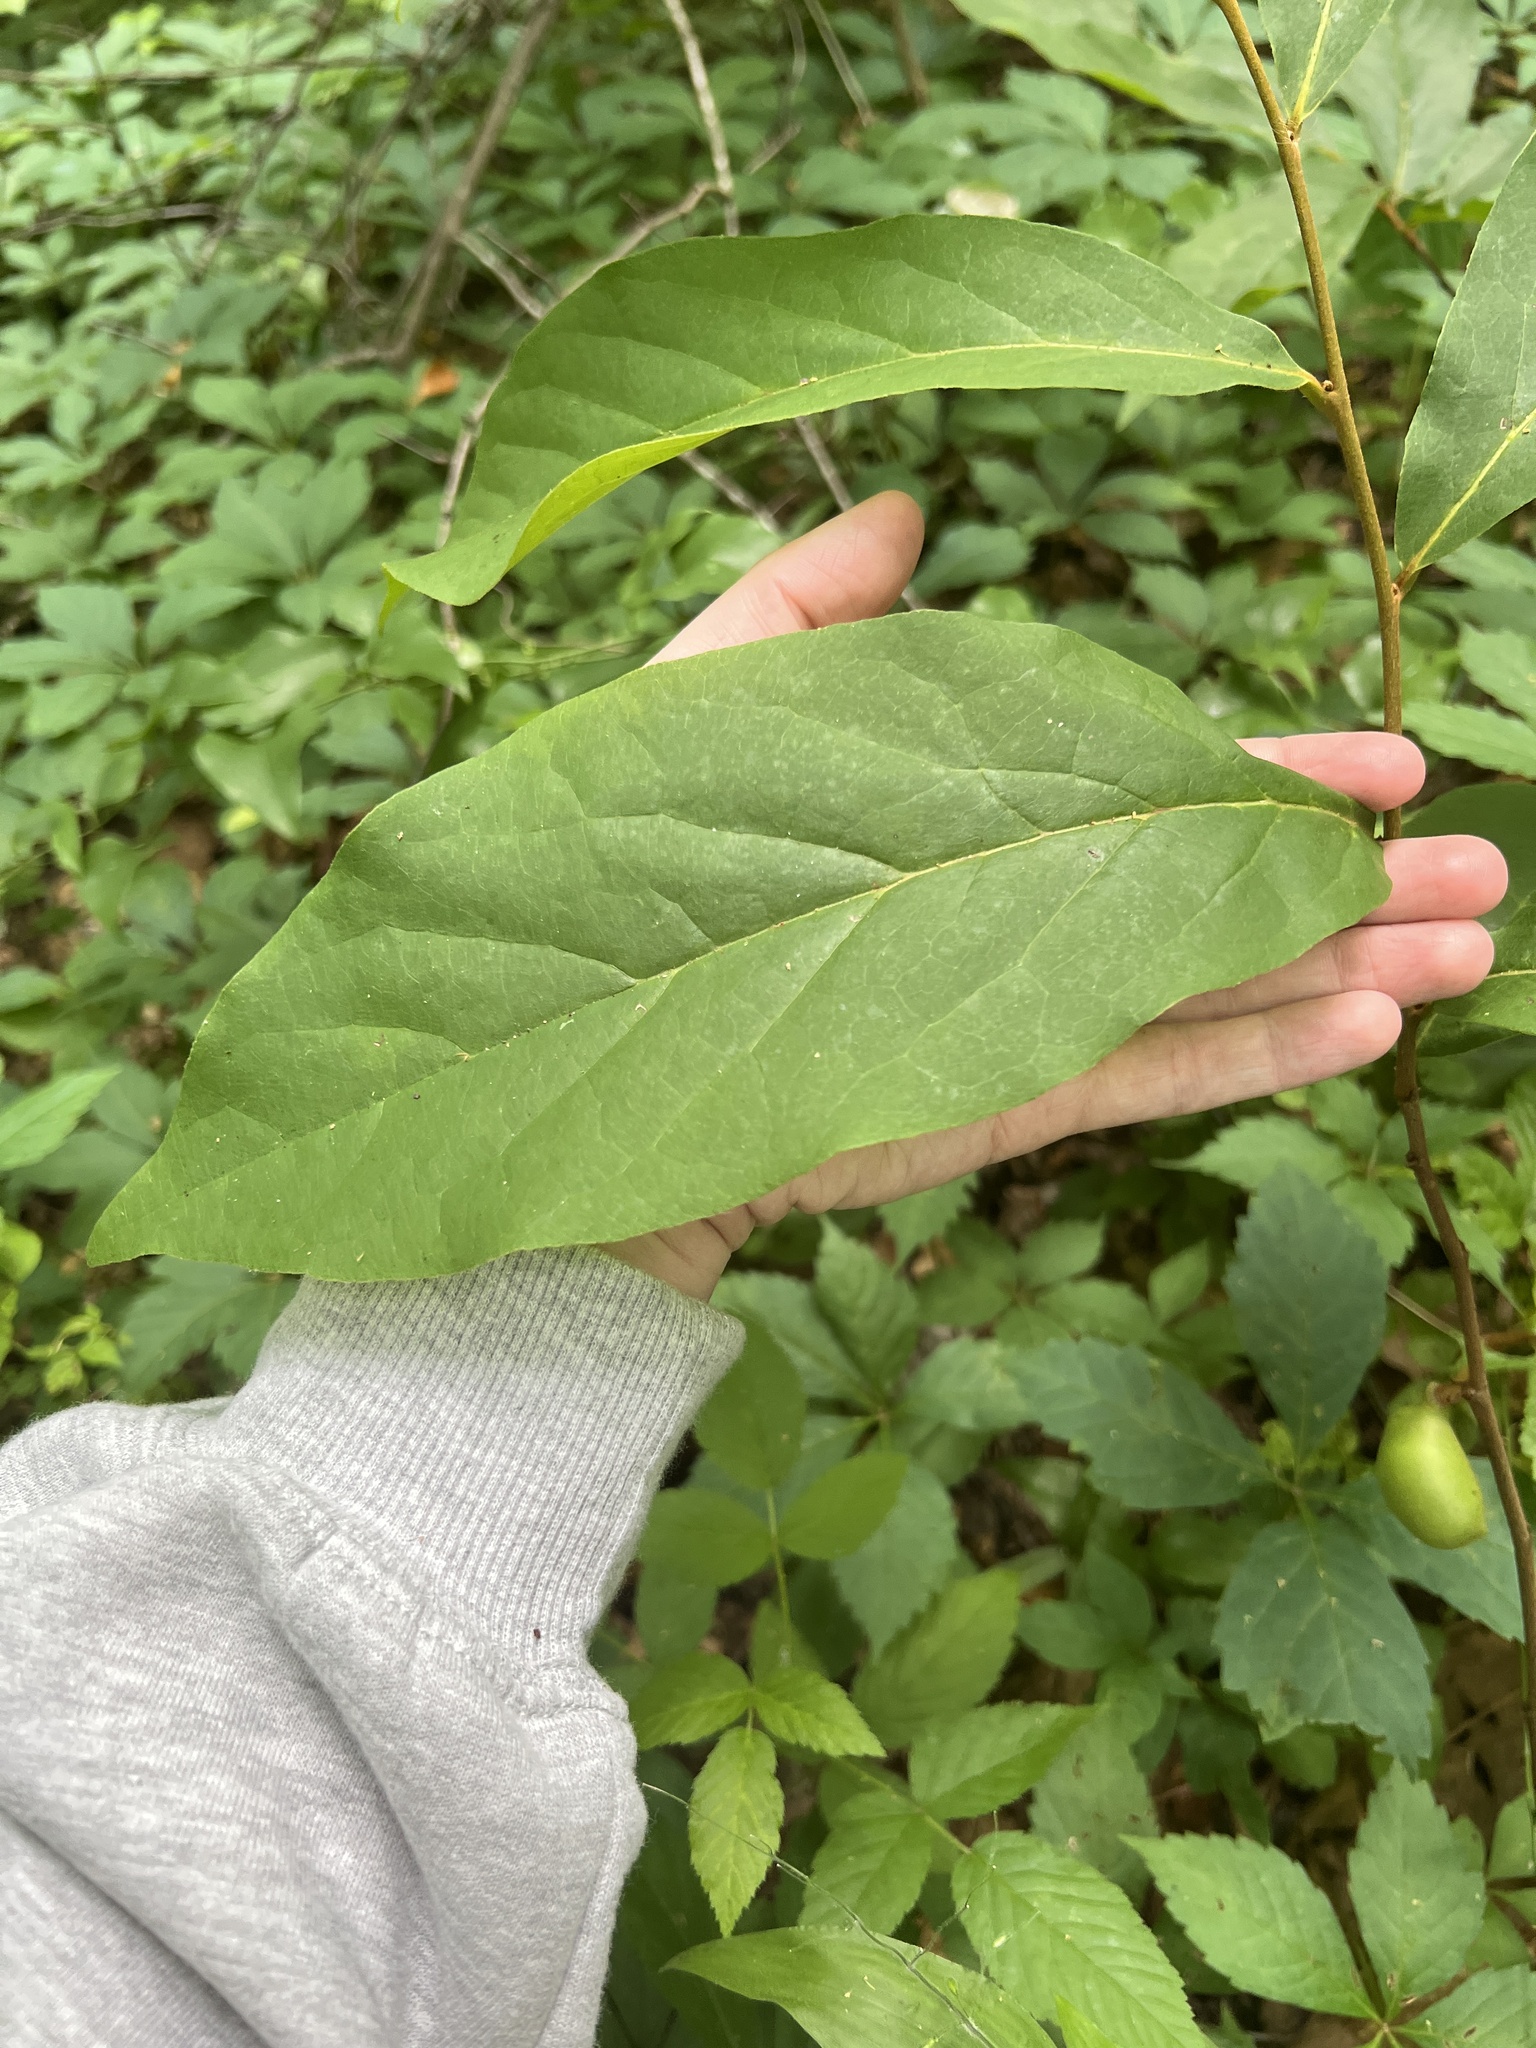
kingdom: Plantae
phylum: Tracheophyta
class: Magnoliopsida
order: Magnoliales
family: Annonaceae
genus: Asimina
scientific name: Asimina parviflora
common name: Dwarf pawpaw
